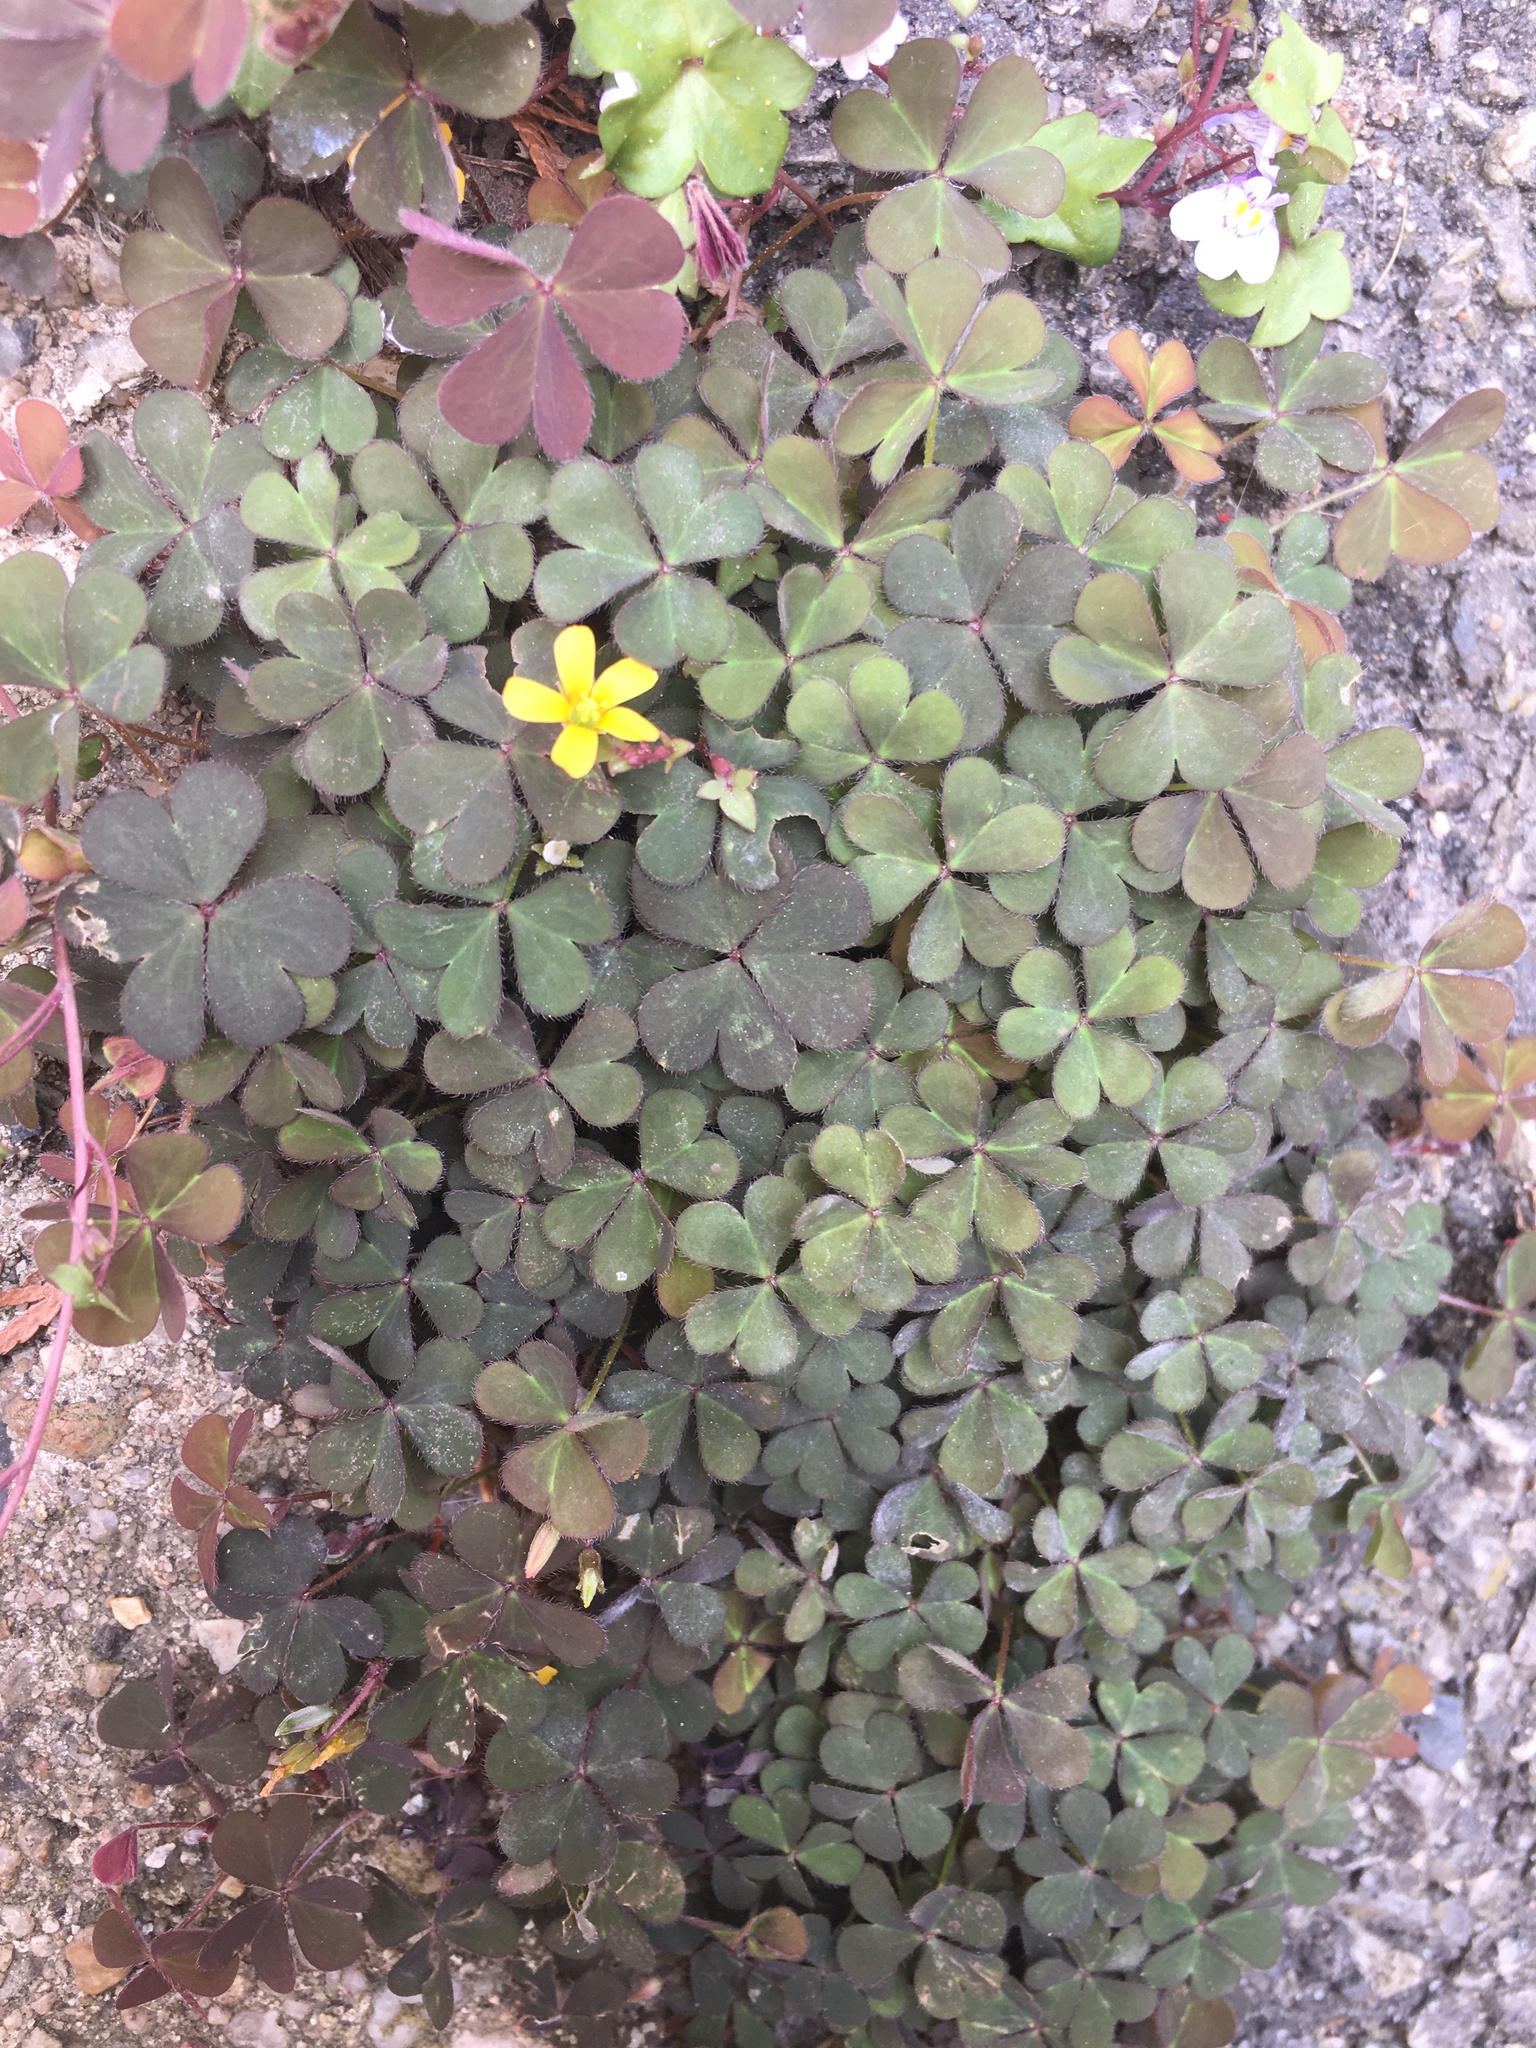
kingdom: Plantae
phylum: Tracheophyta
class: Magnoliopsida
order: Oxalidales
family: Oxalidaceae
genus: Oxalis
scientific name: Oxalis corniculata
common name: Procumbent yellow-sorrel
